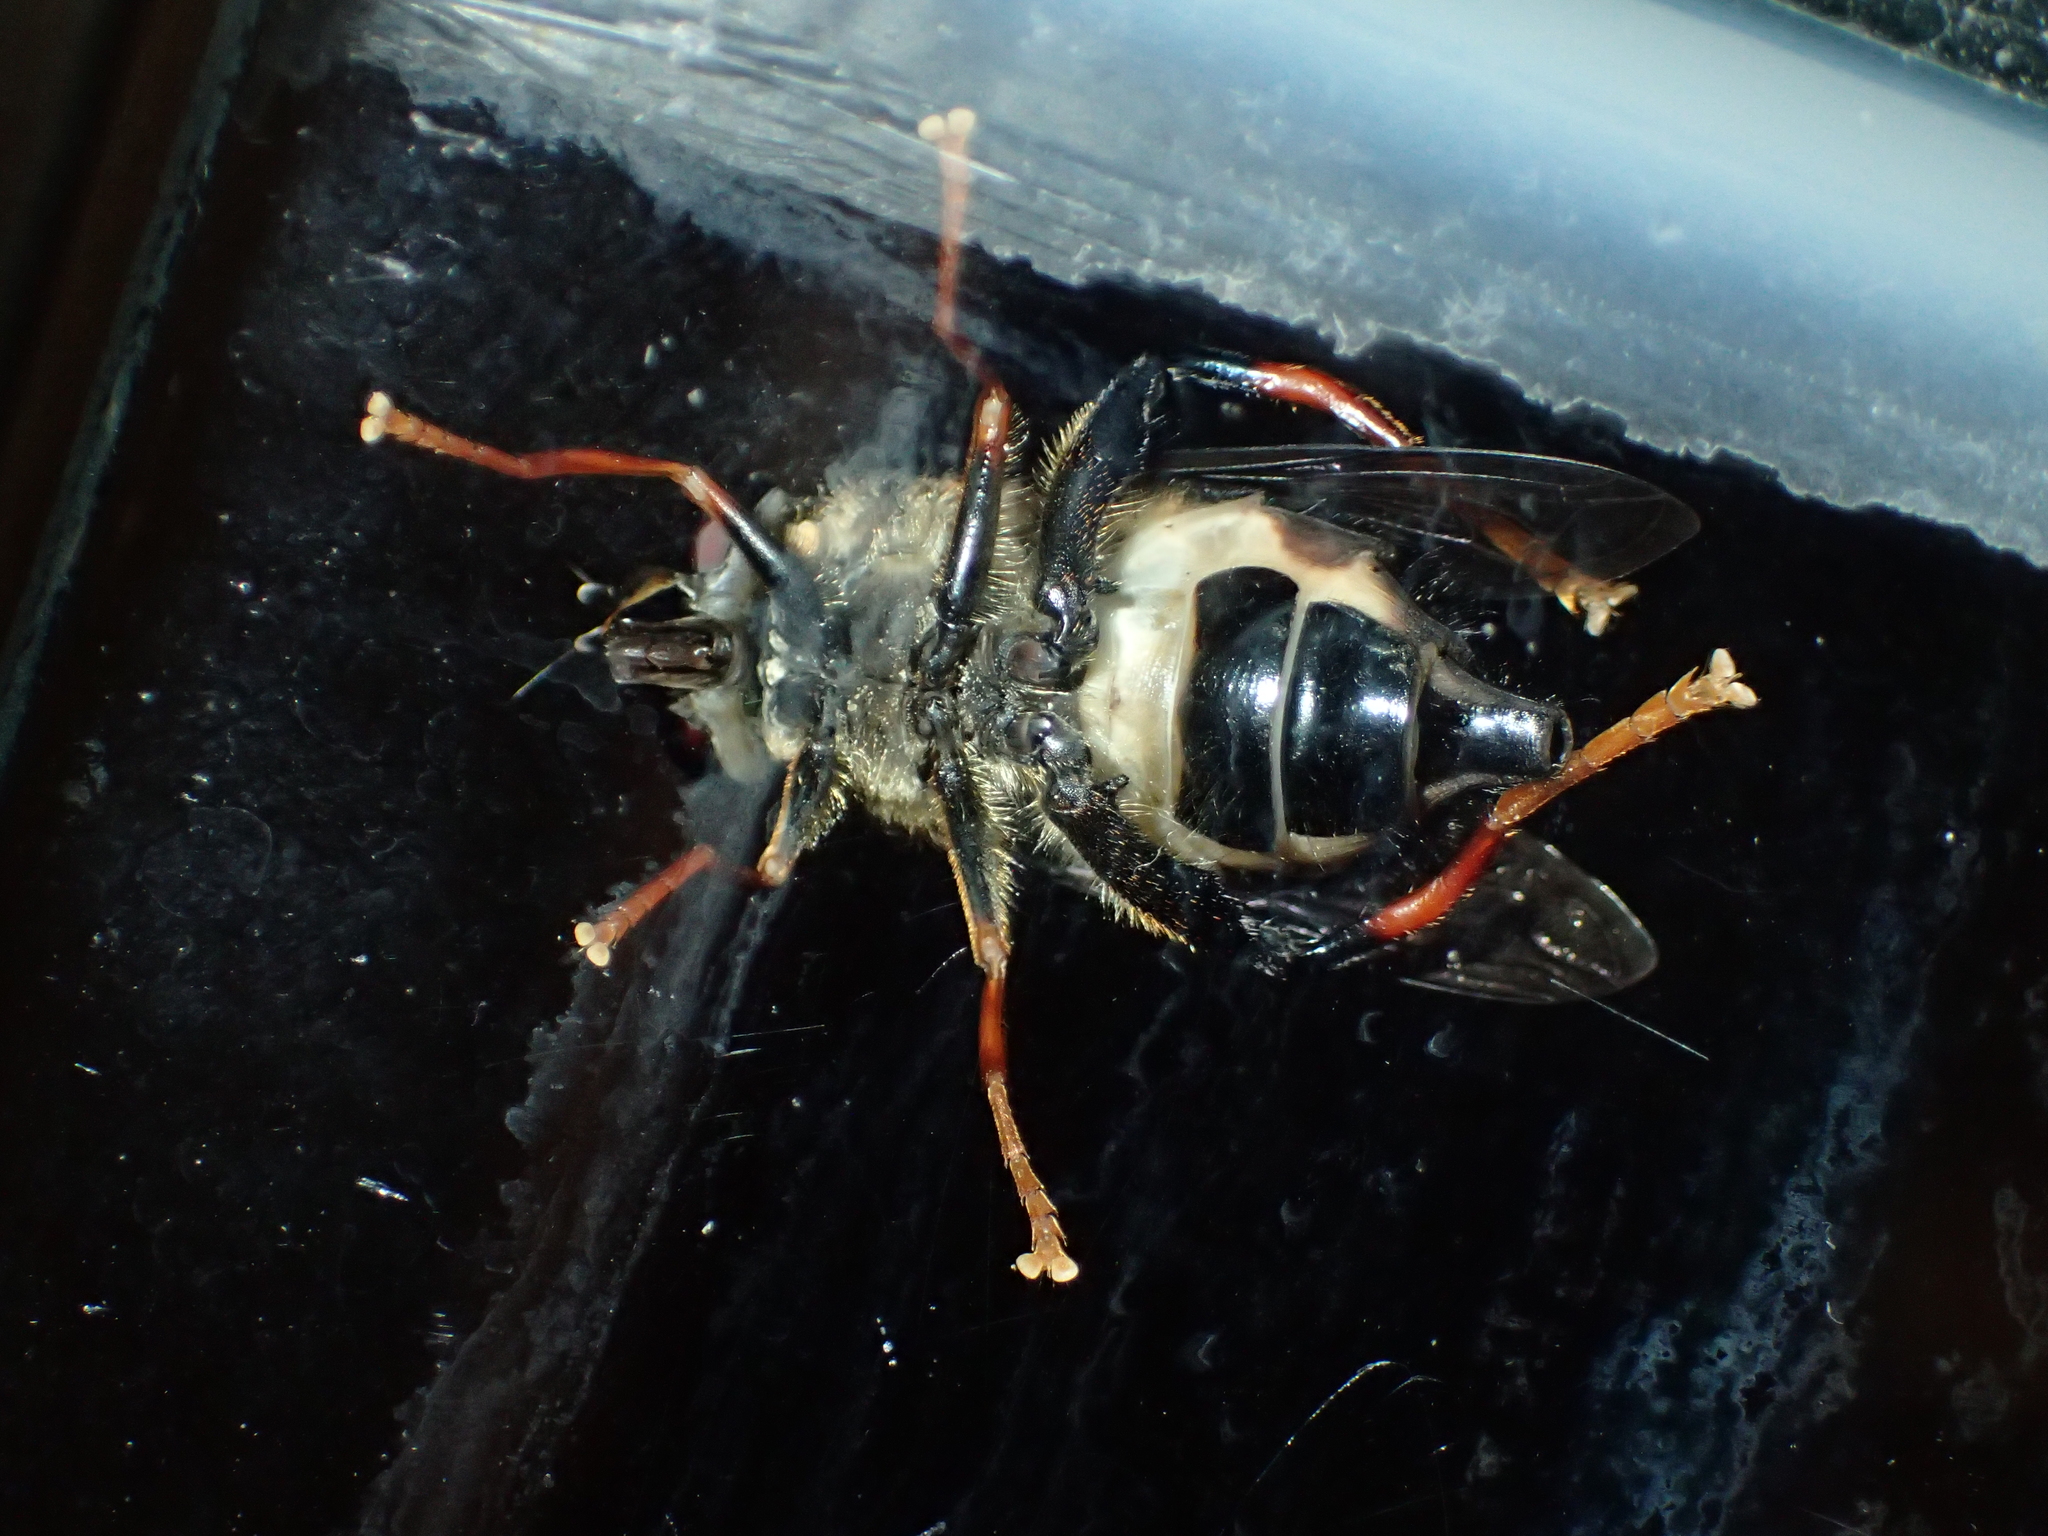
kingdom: Animalia
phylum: Arthropoda
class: Insecta
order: Diptera
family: Syrphidae
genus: Helophilus
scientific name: Helophilus seelandicus
